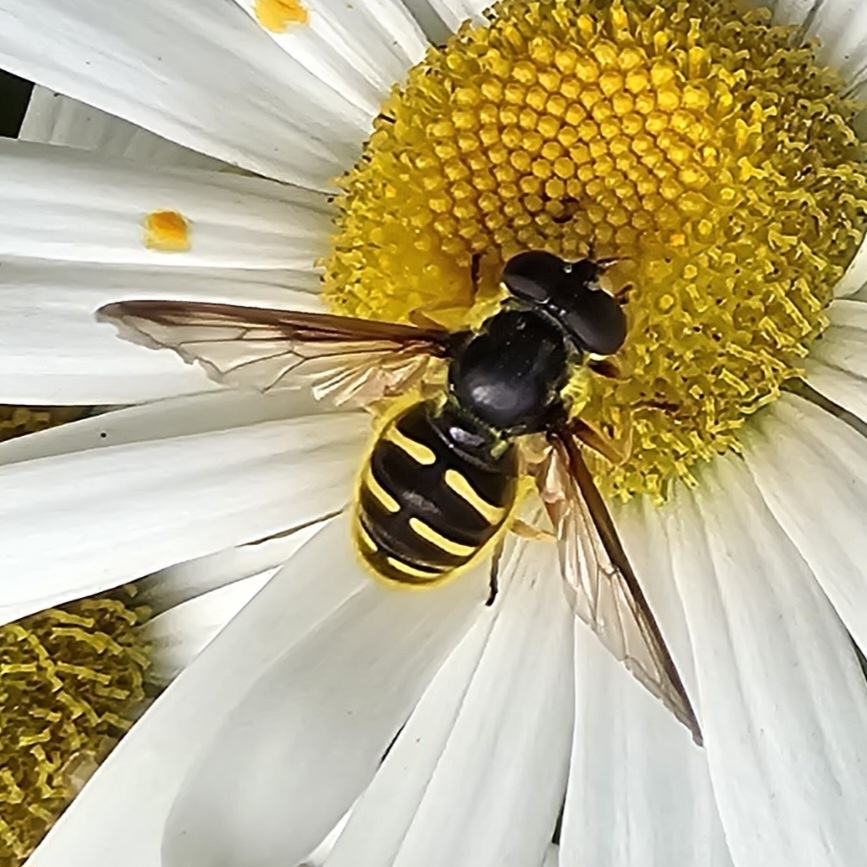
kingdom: Animalia
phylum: Arthropoda
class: Insecta
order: Diptera
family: Syrphidae
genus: Sericomyia
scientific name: Sericomyia chrysotoxoides
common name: Oblique-banded pond fly
